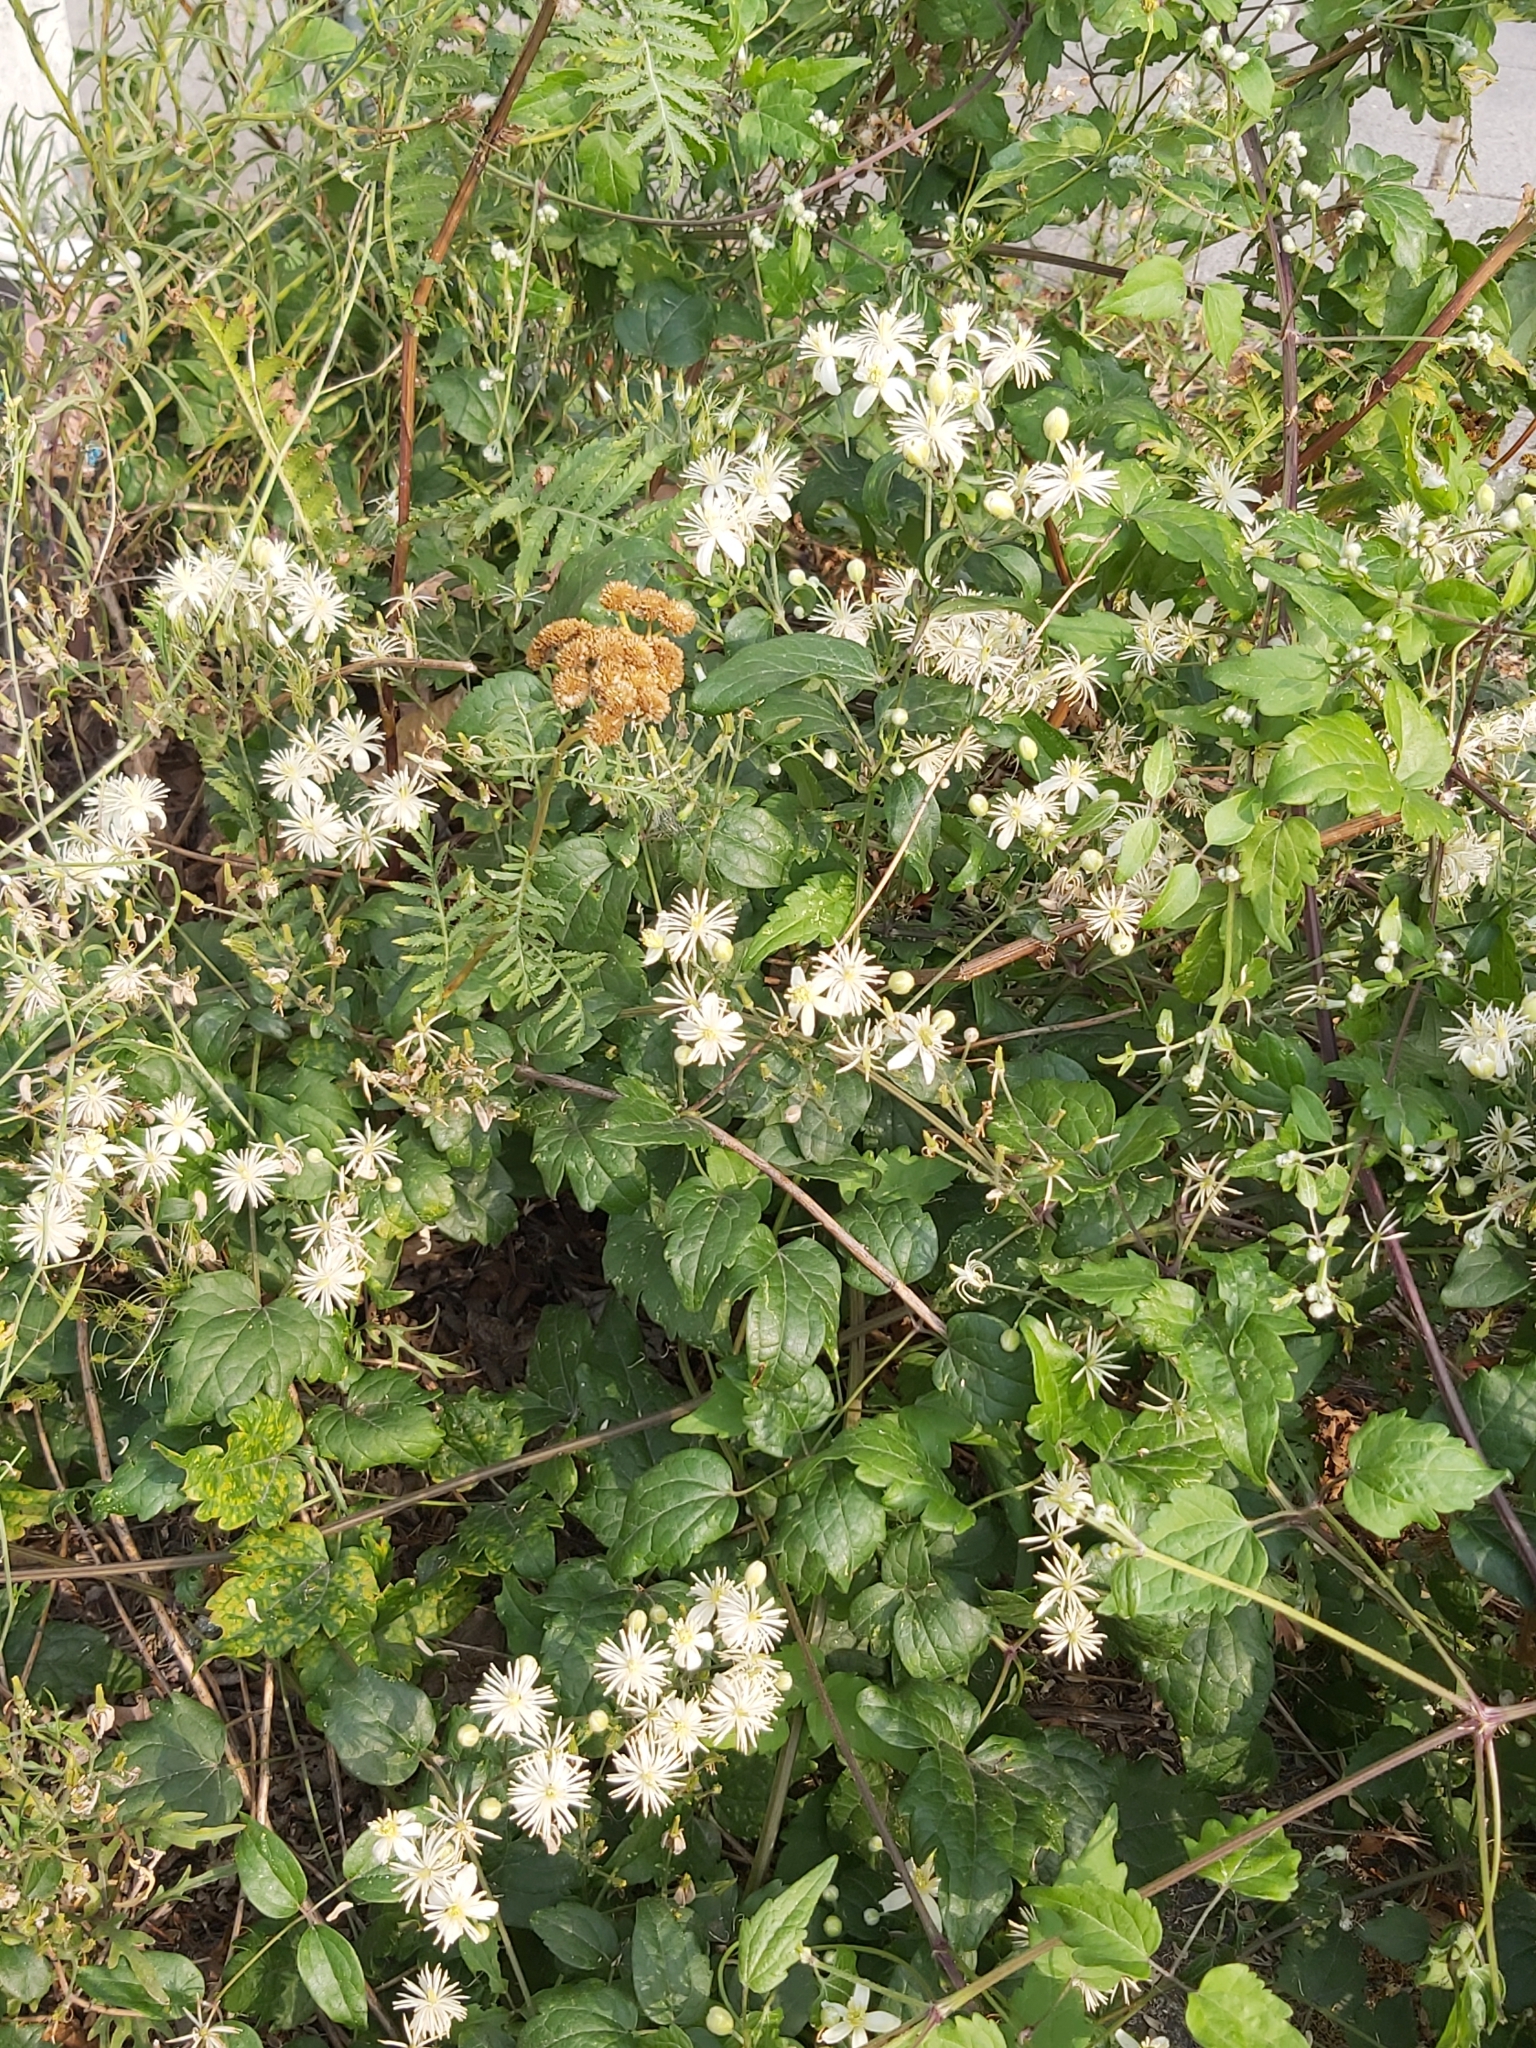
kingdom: Plantae
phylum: Tracheophyta
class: Magnoliopsida
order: Ranunculales
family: Ranunculaceae
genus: Clematis
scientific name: Clematis vitalba
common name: Evergreen clematis
